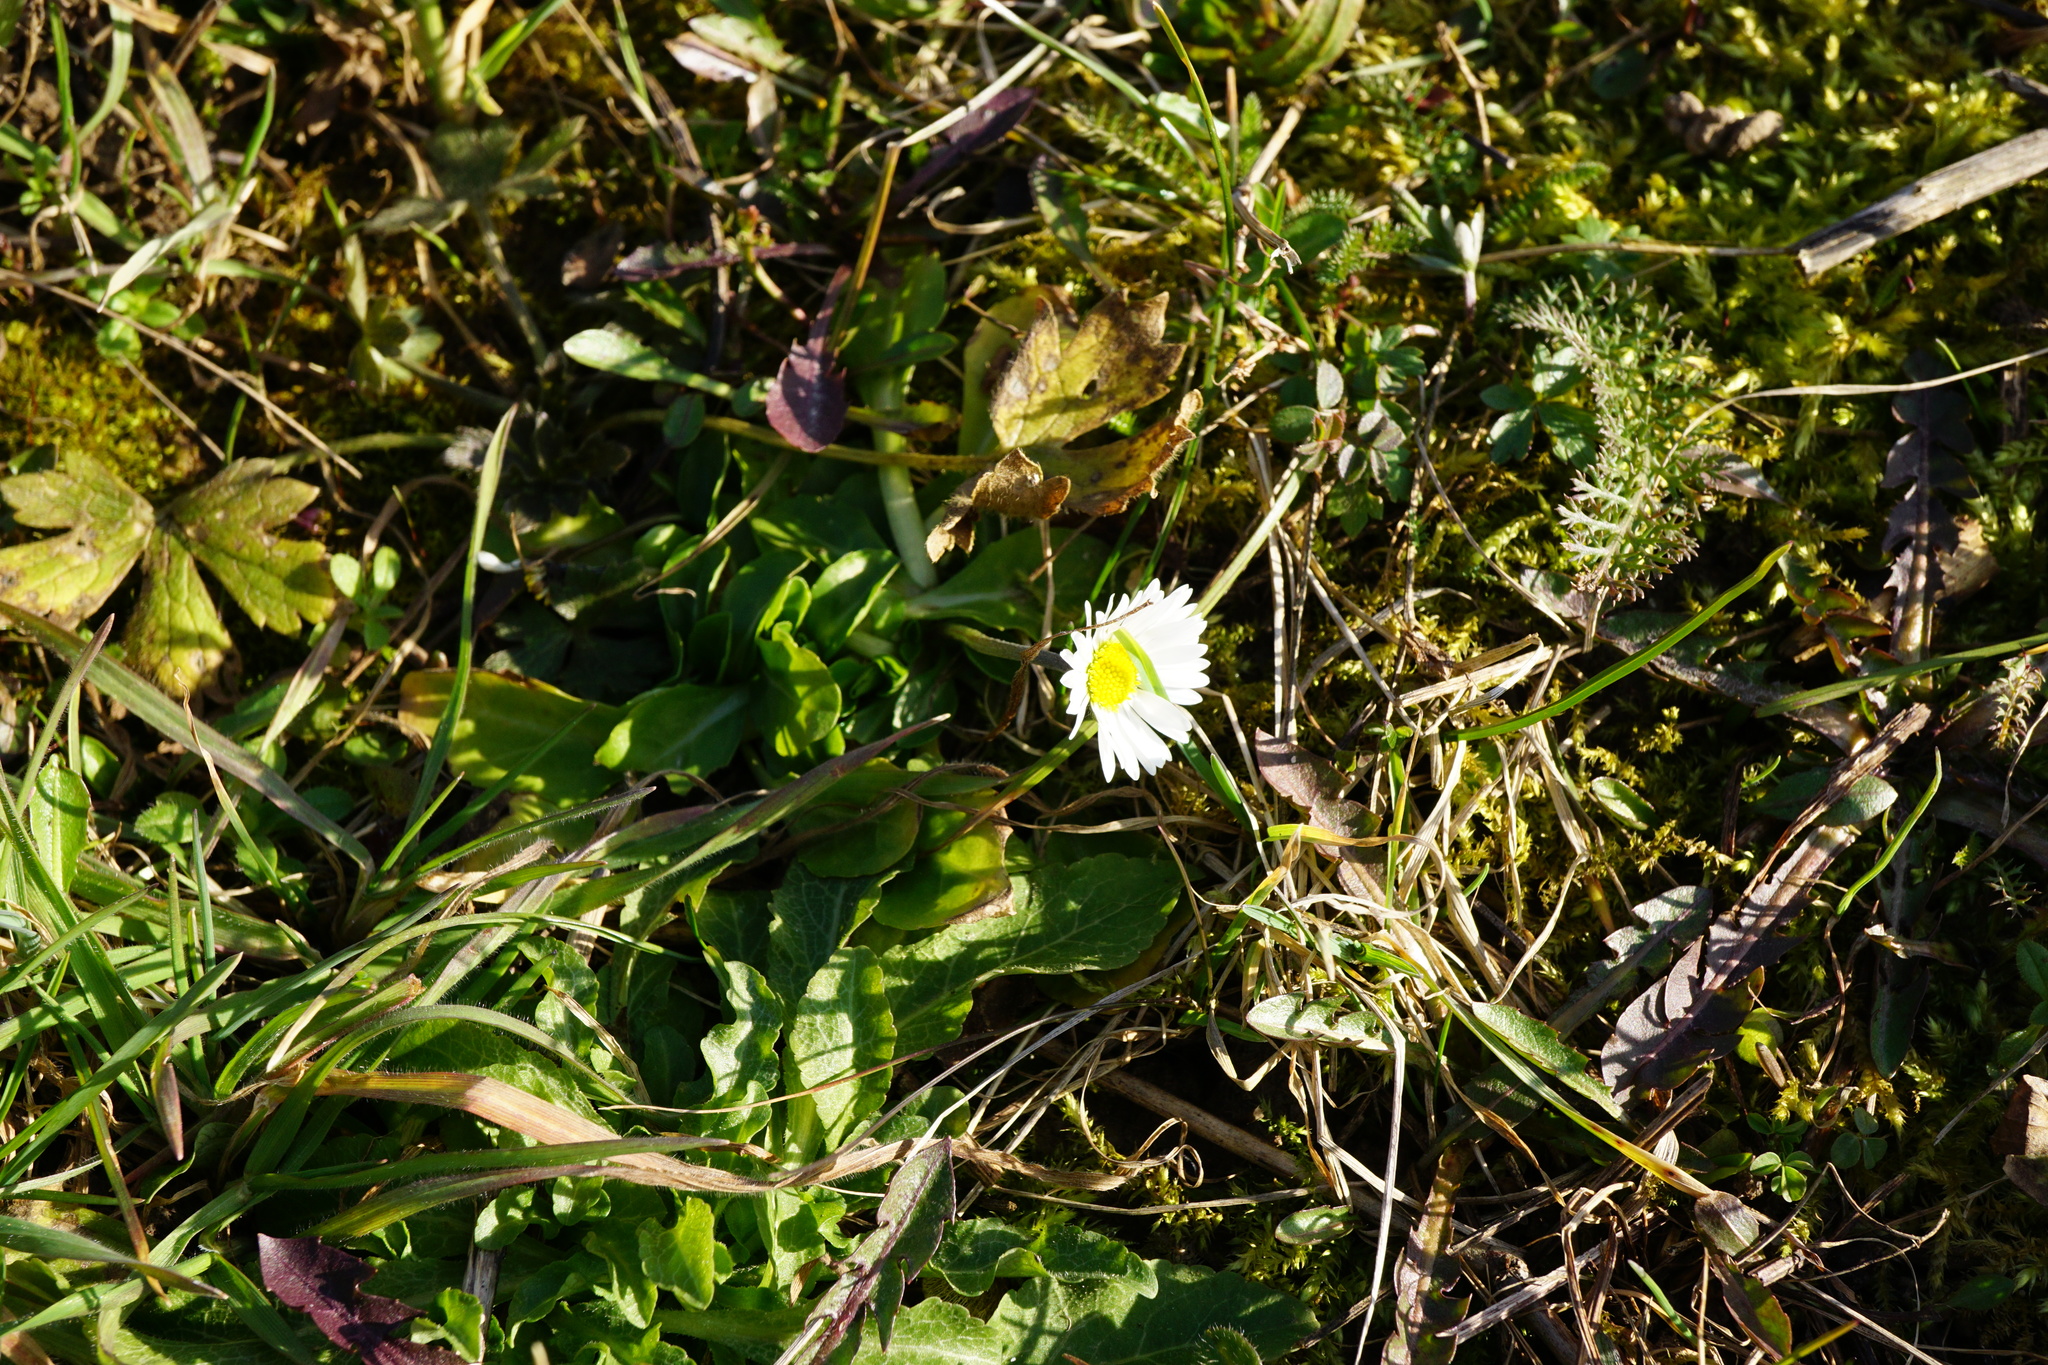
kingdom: Plantae
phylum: Tracheophyta
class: Magnoliopsida
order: Asterales
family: Asteraceae
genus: Bellis
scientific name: Bellis perennis
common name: Lawndaisy
